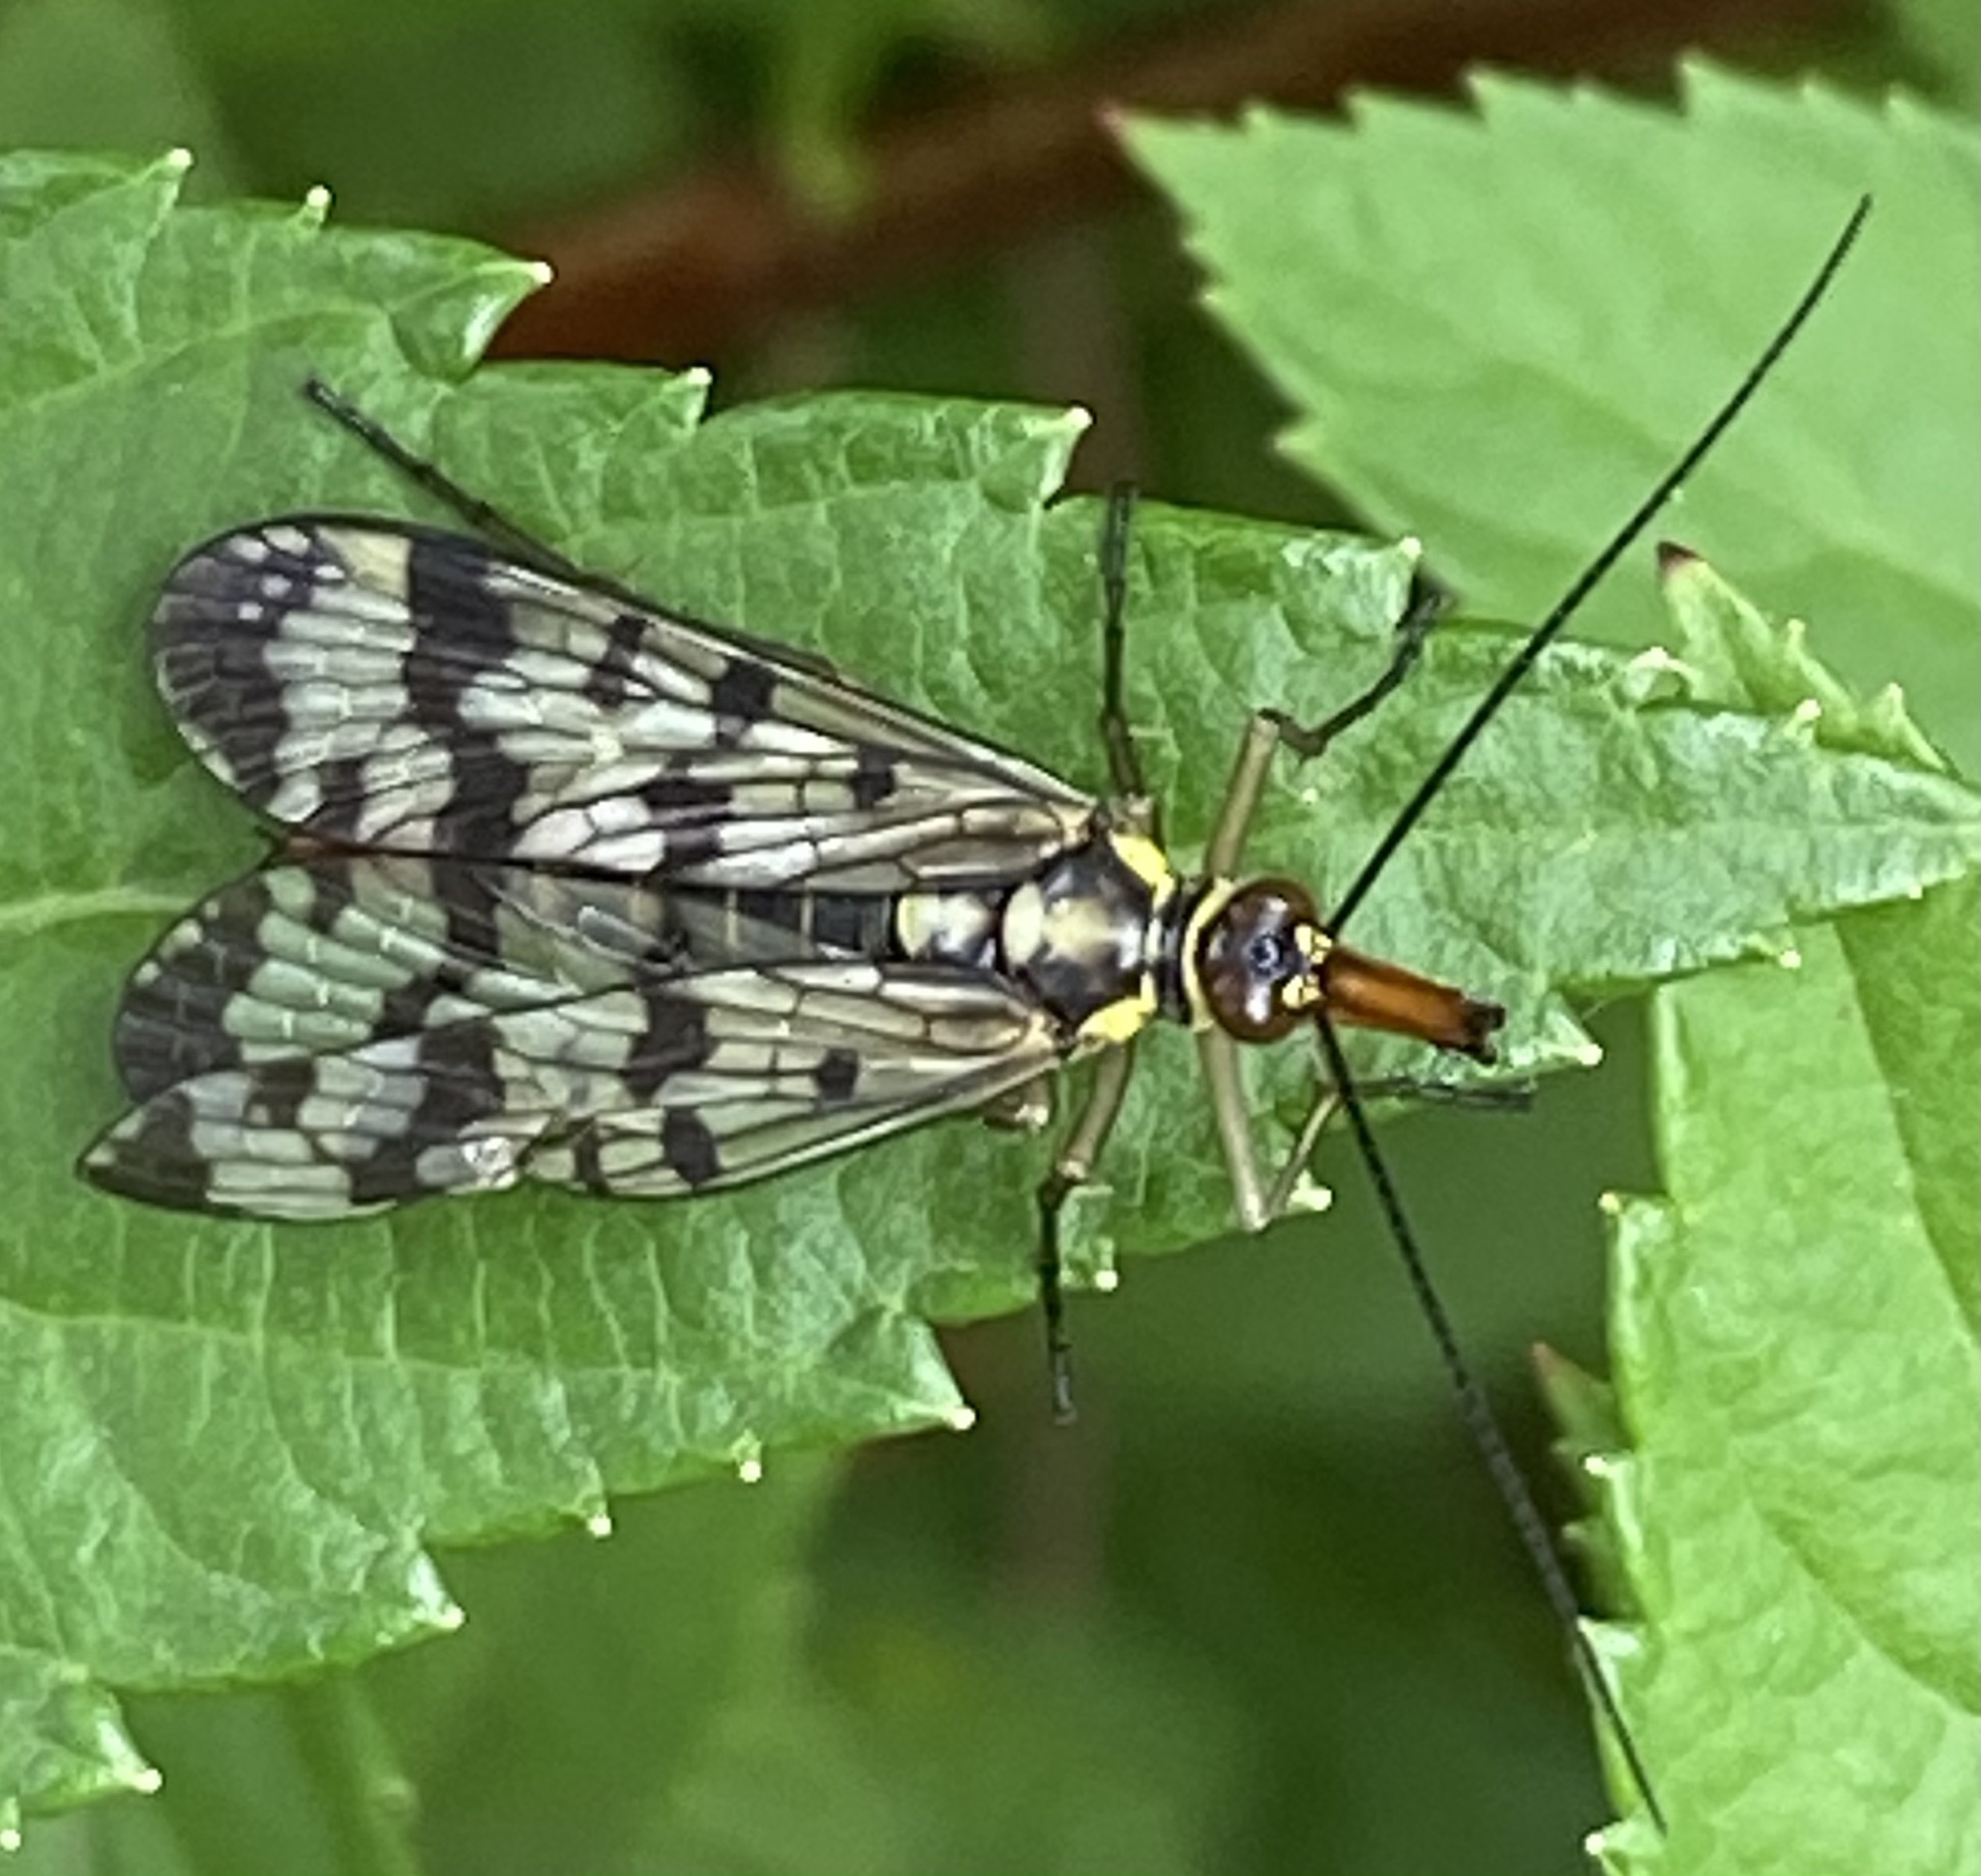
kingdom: Animalia
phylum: Arthropoda
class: Insecta
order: Mecoptera
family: Panorpidae
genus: Panorpa
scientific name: Panorpa communis
